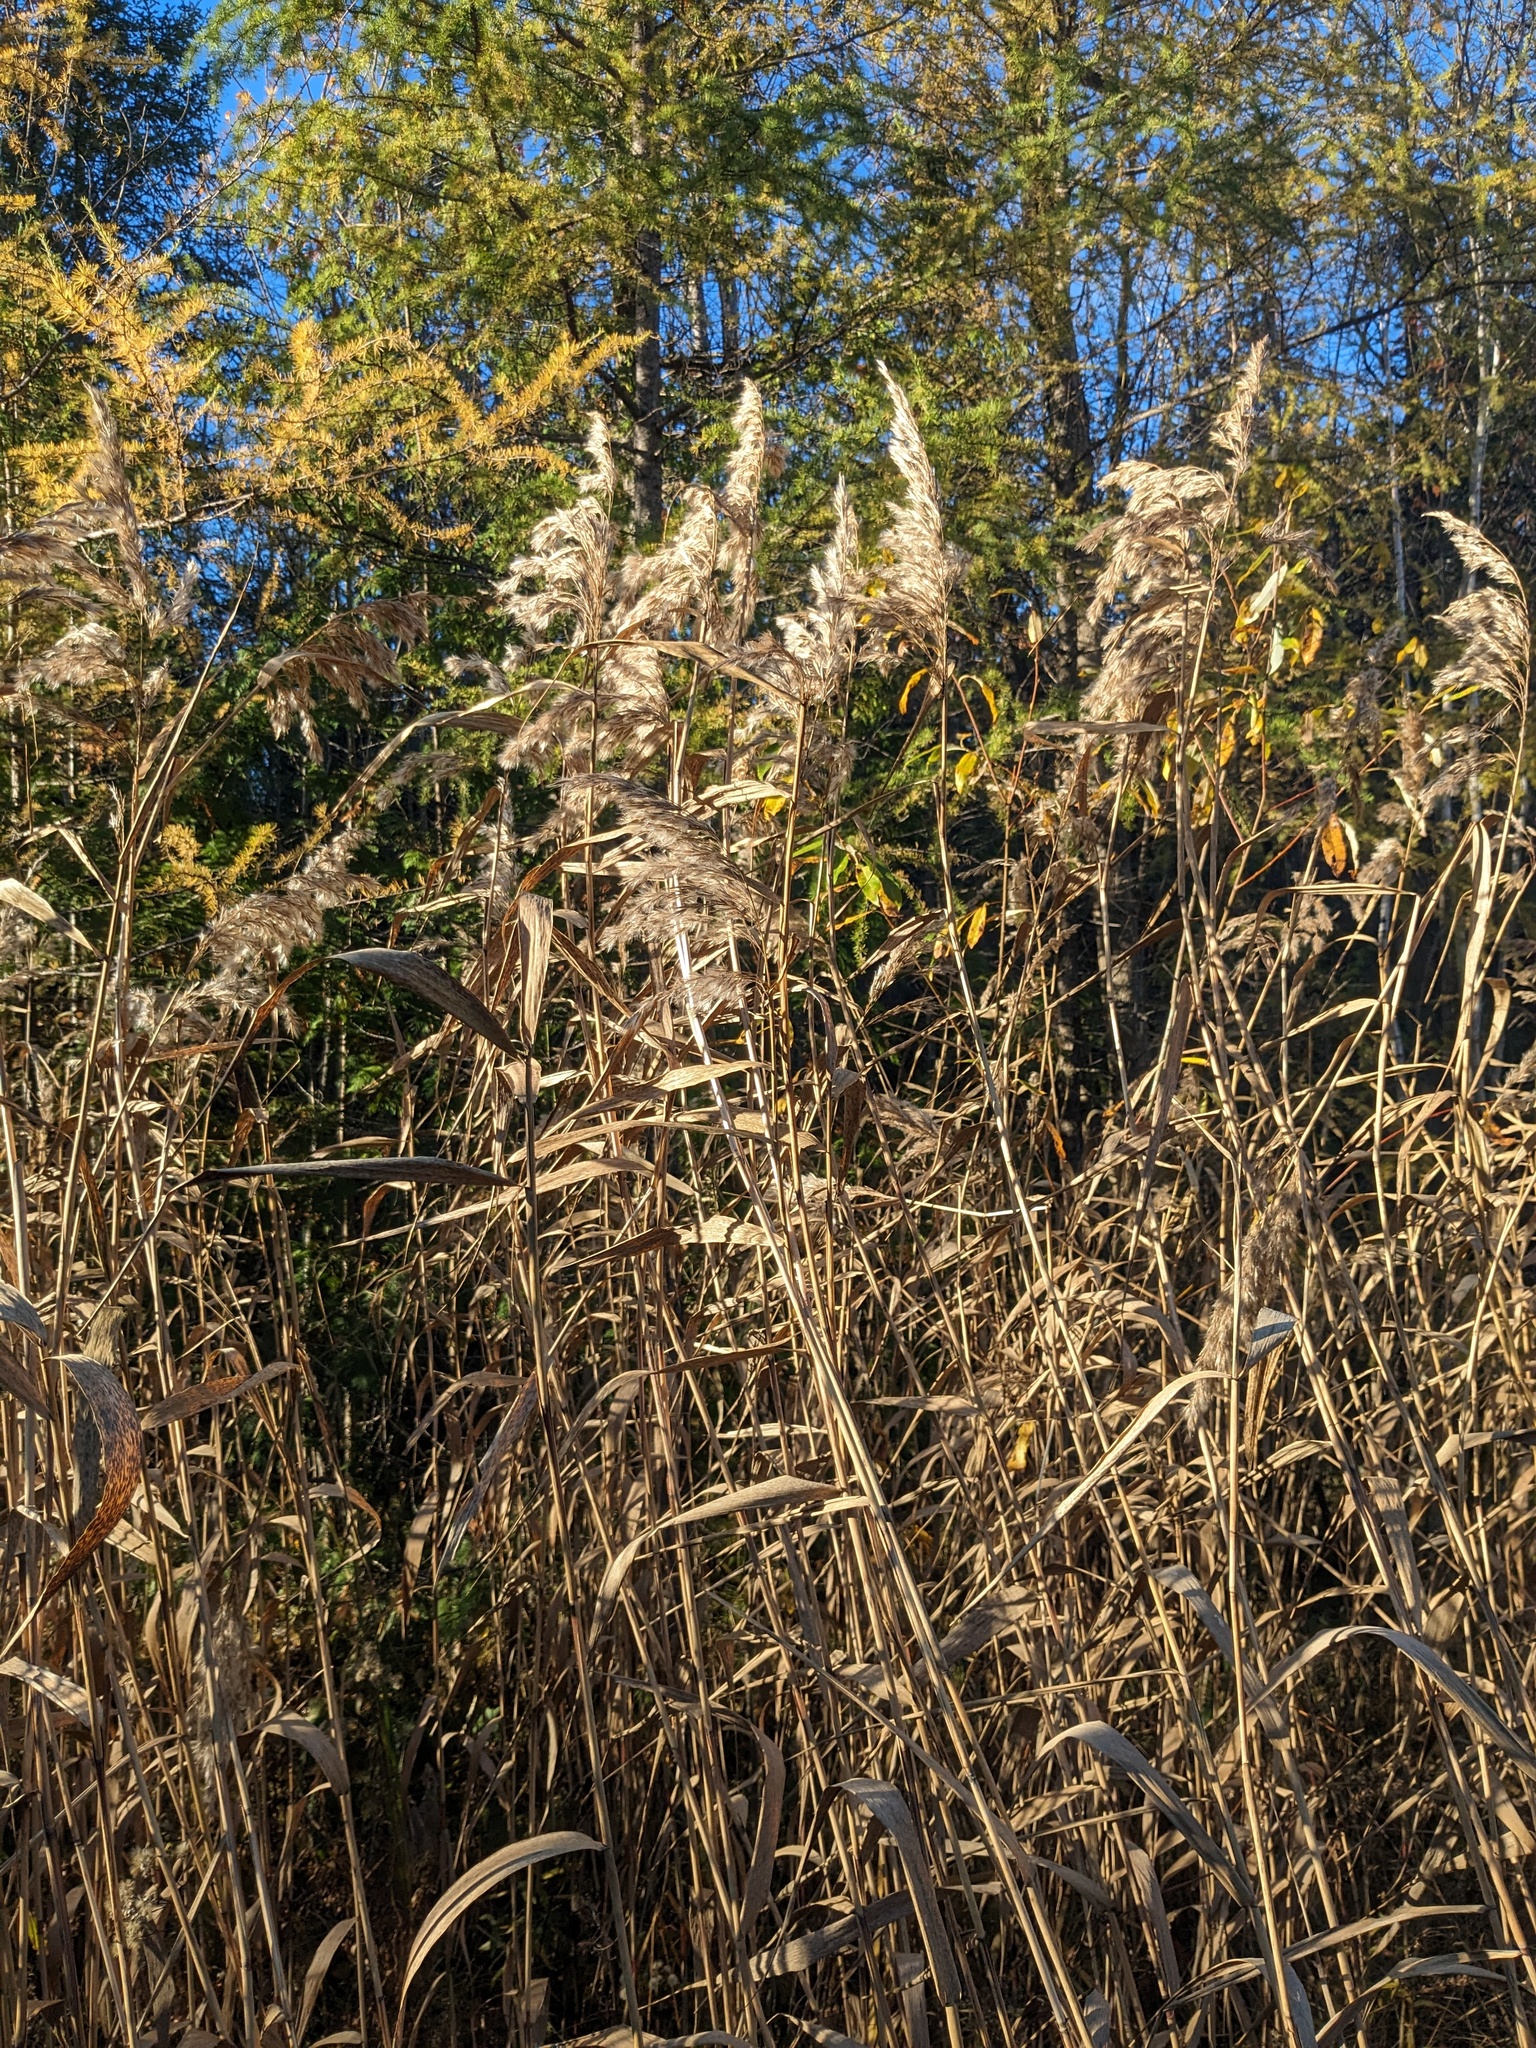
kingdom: Plantae
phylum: Tracheophyta
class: Liliopsida
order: Poales
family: Poaceae
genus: Phragmites
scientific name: Phragmites australis
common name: Common reed
